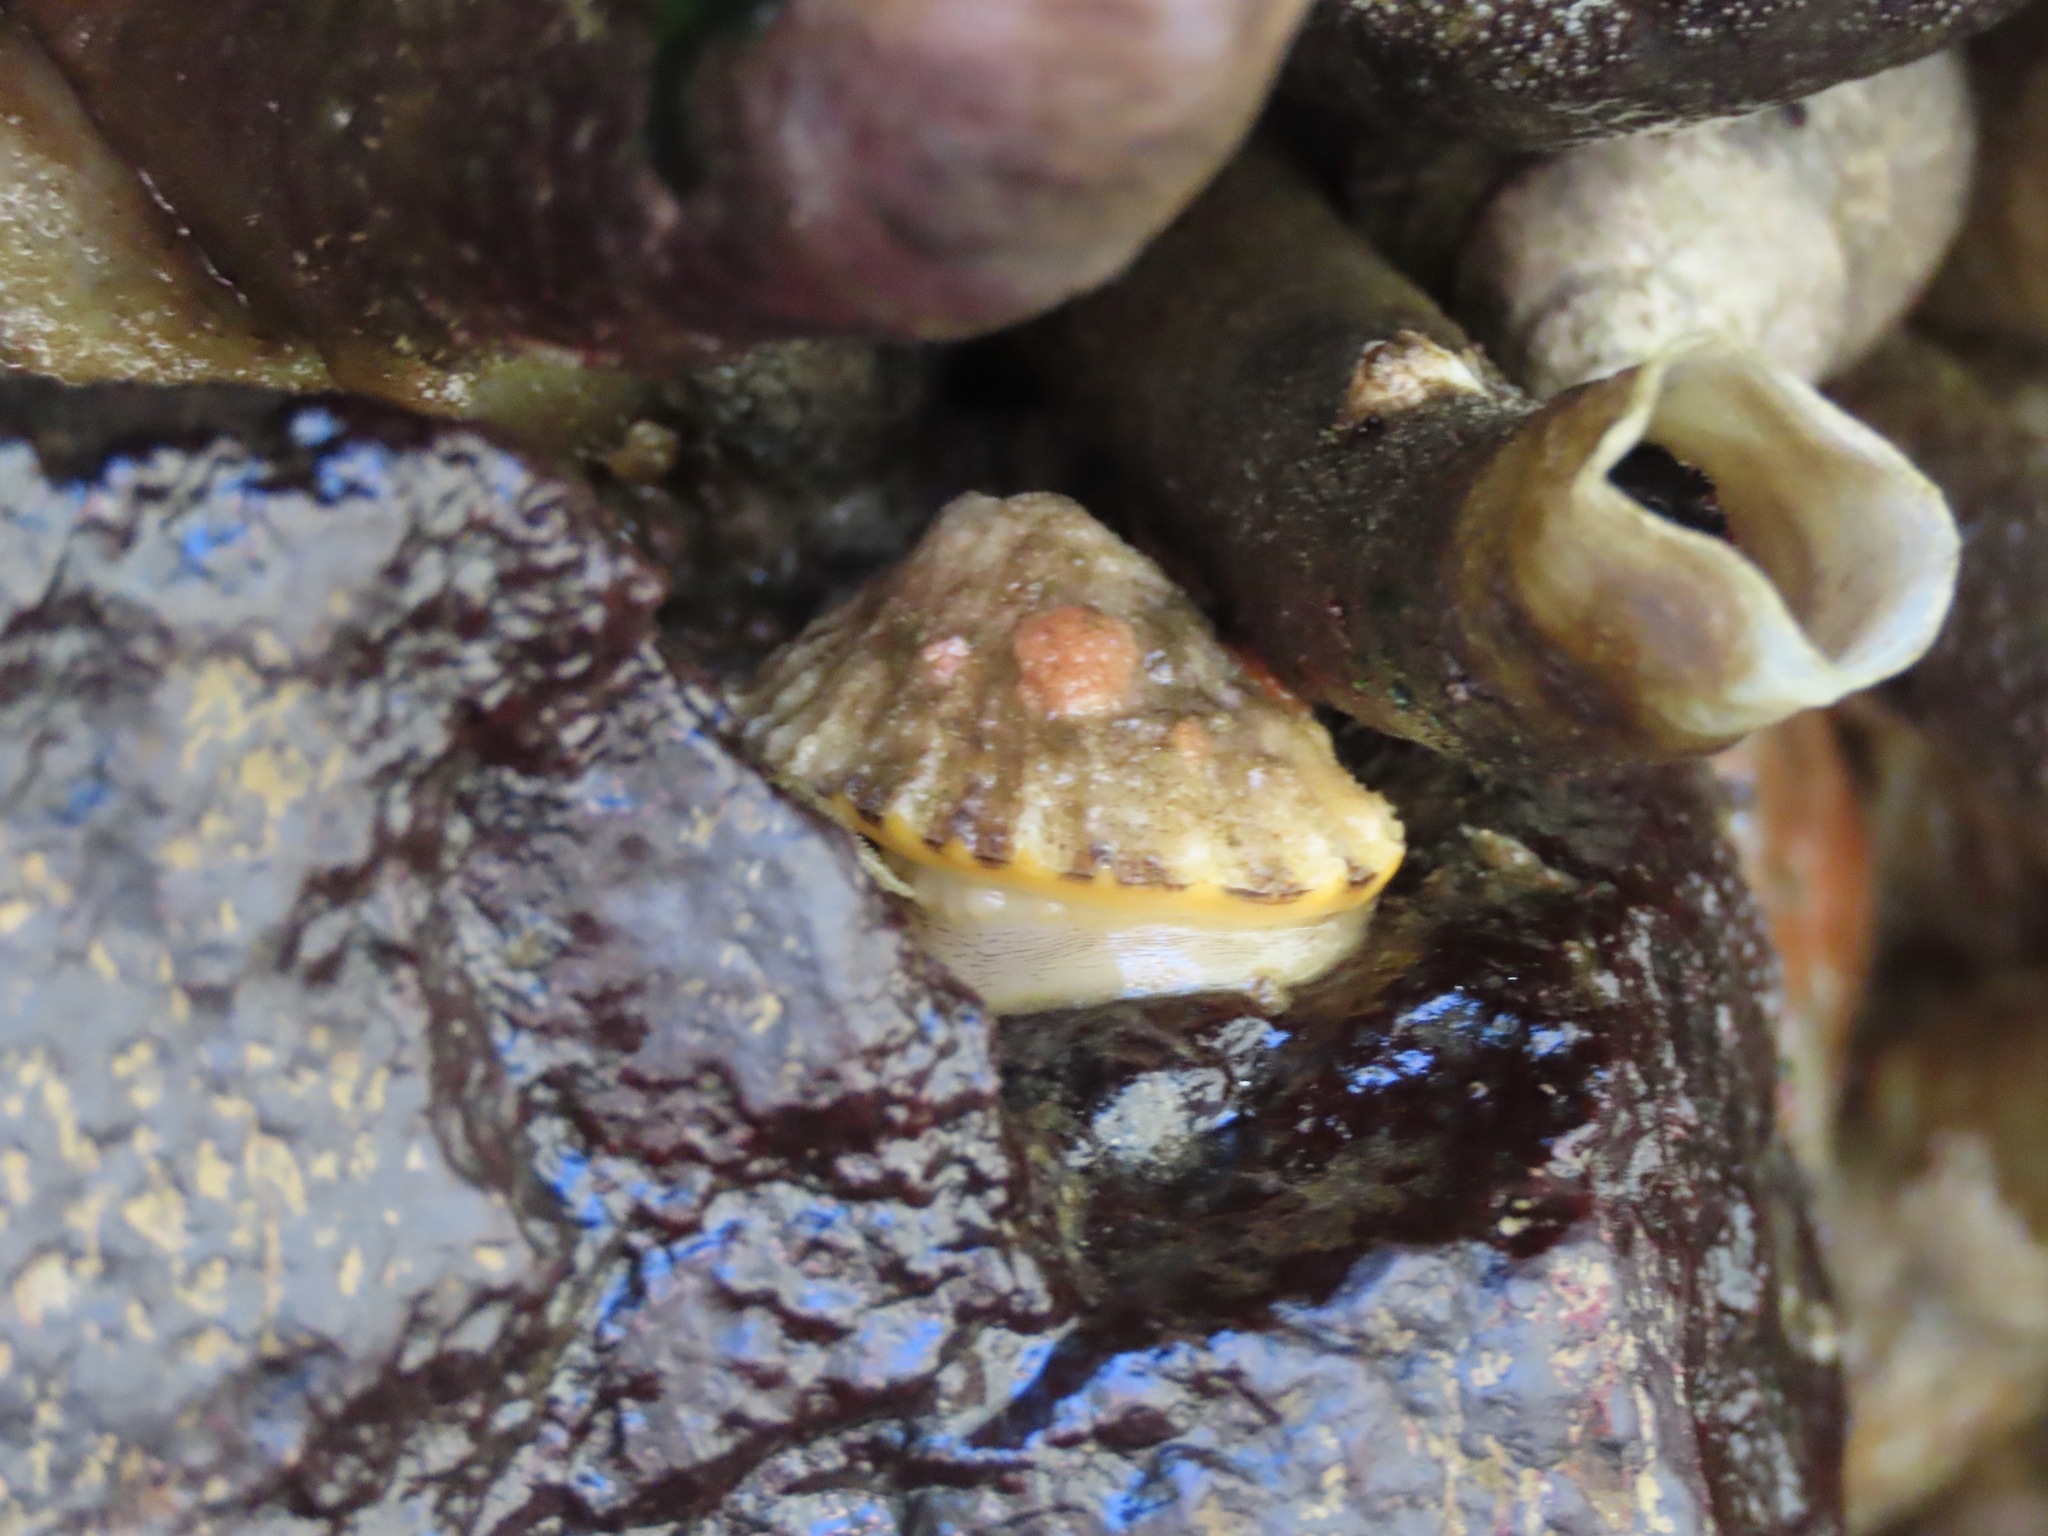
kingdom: Animalia
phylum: Mollusca
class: Gastropoda
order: Lepetellida
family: Fissurellidae
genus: Diodora
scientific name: Diodora aspera
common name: Rough keyhole limpet
